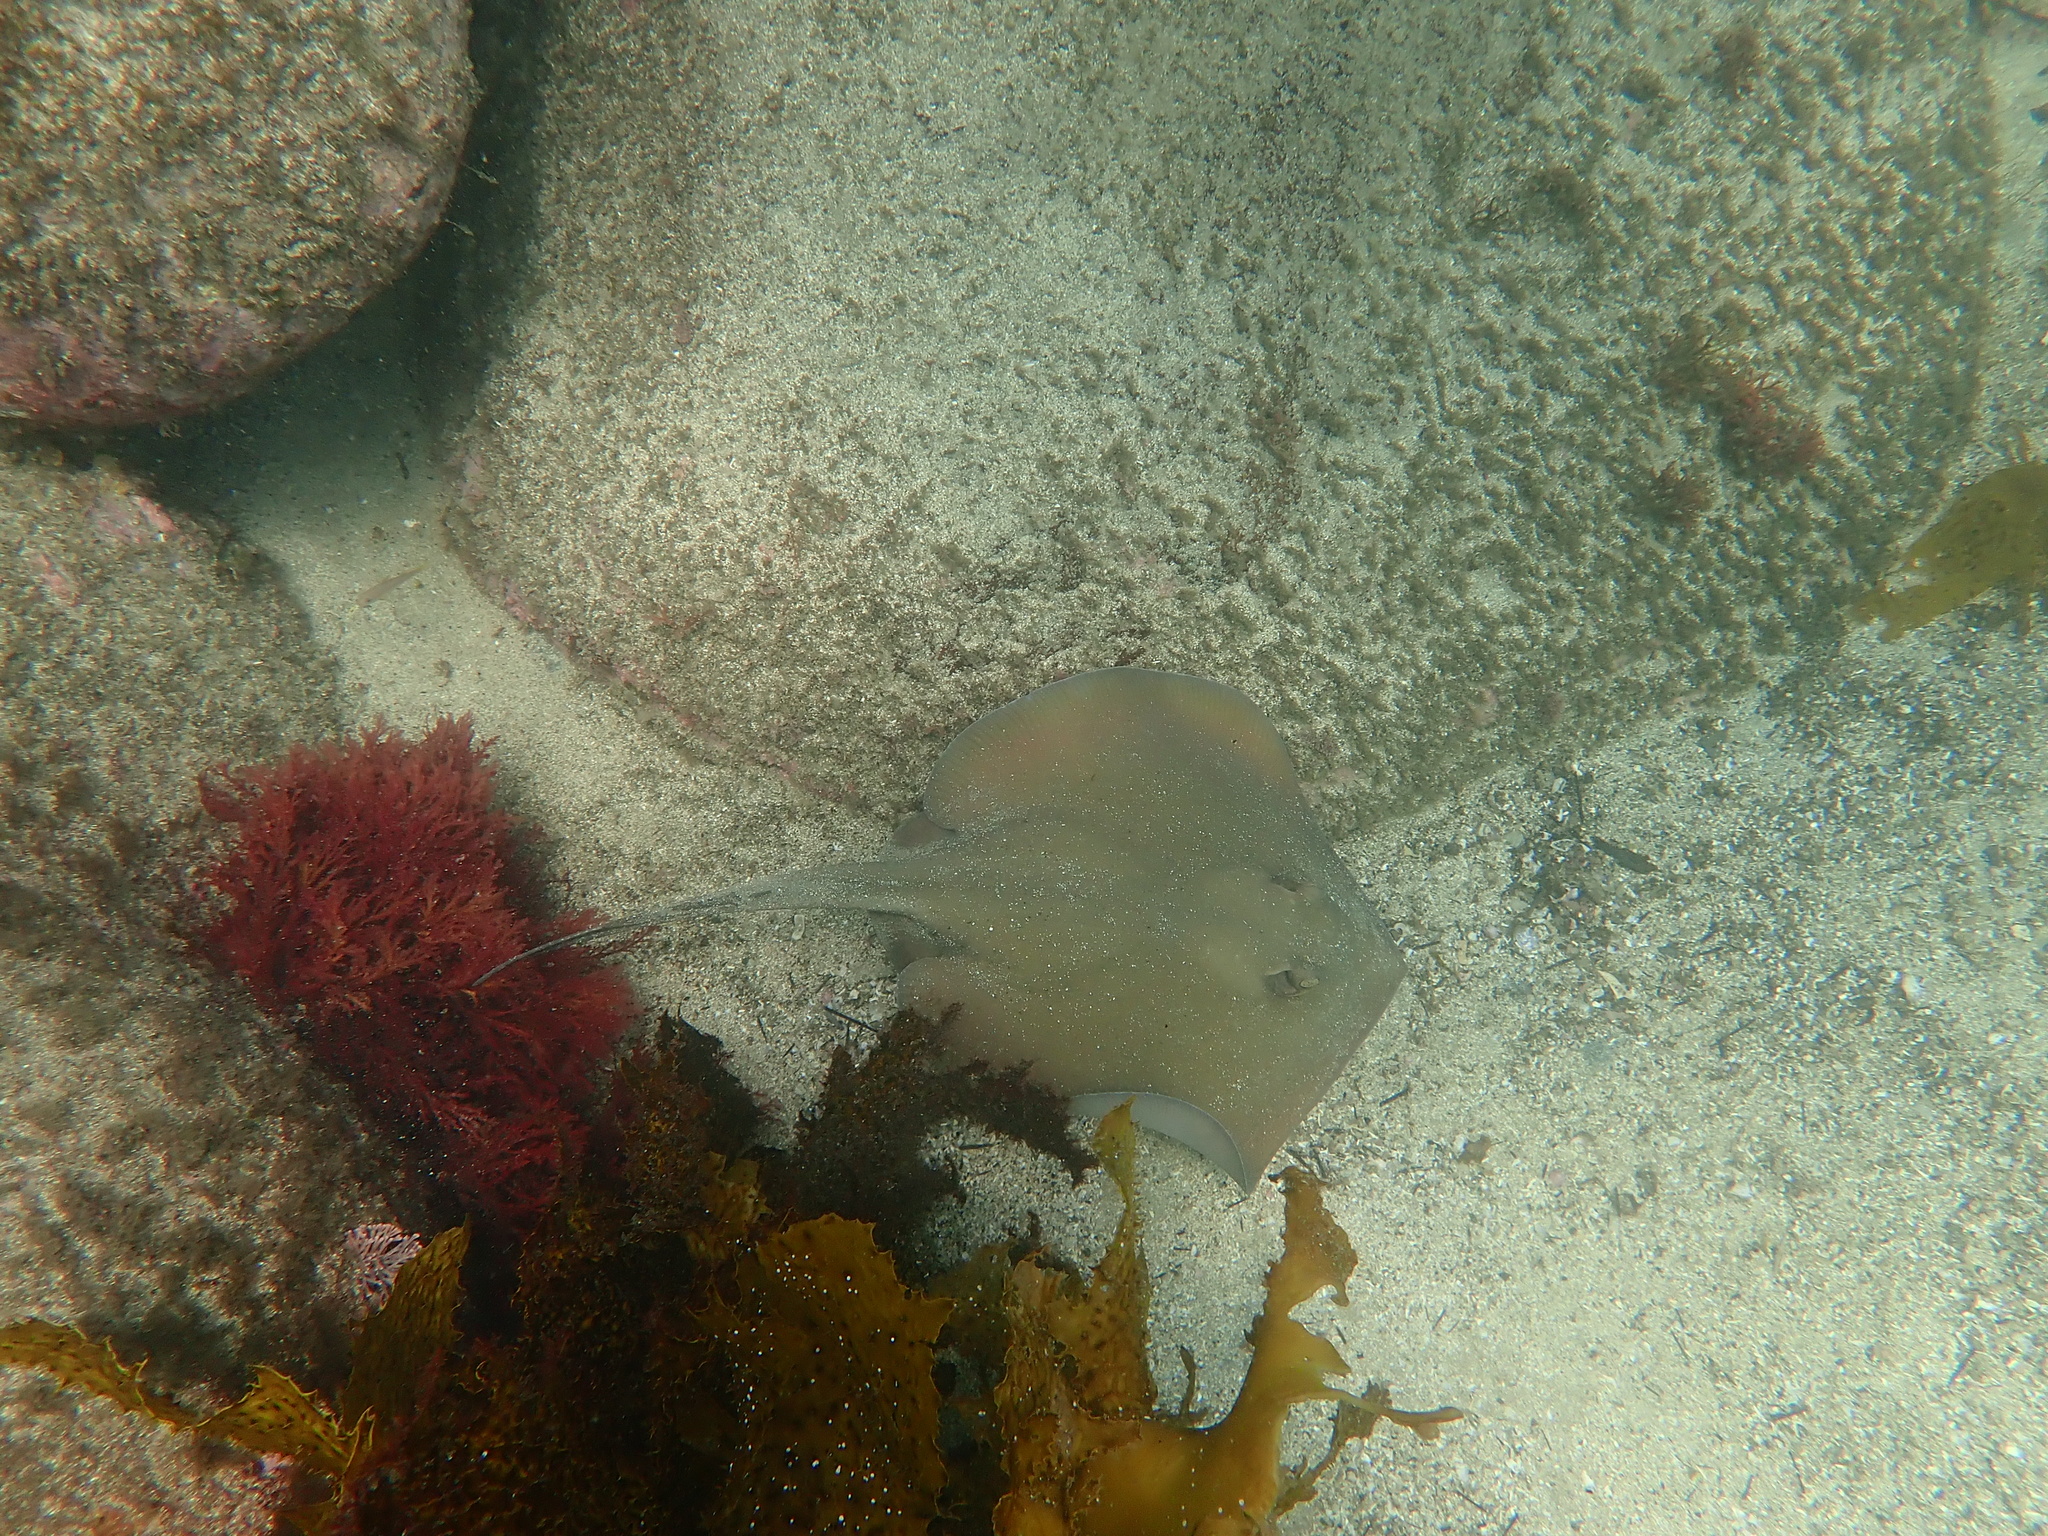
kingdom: Animalia
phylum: Chordata
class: Elasmobranchii
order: Myliobatiformes
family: Urolophidae
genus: Trygonoptera
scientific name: Trygonoptera testacea
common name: Common stingaree
